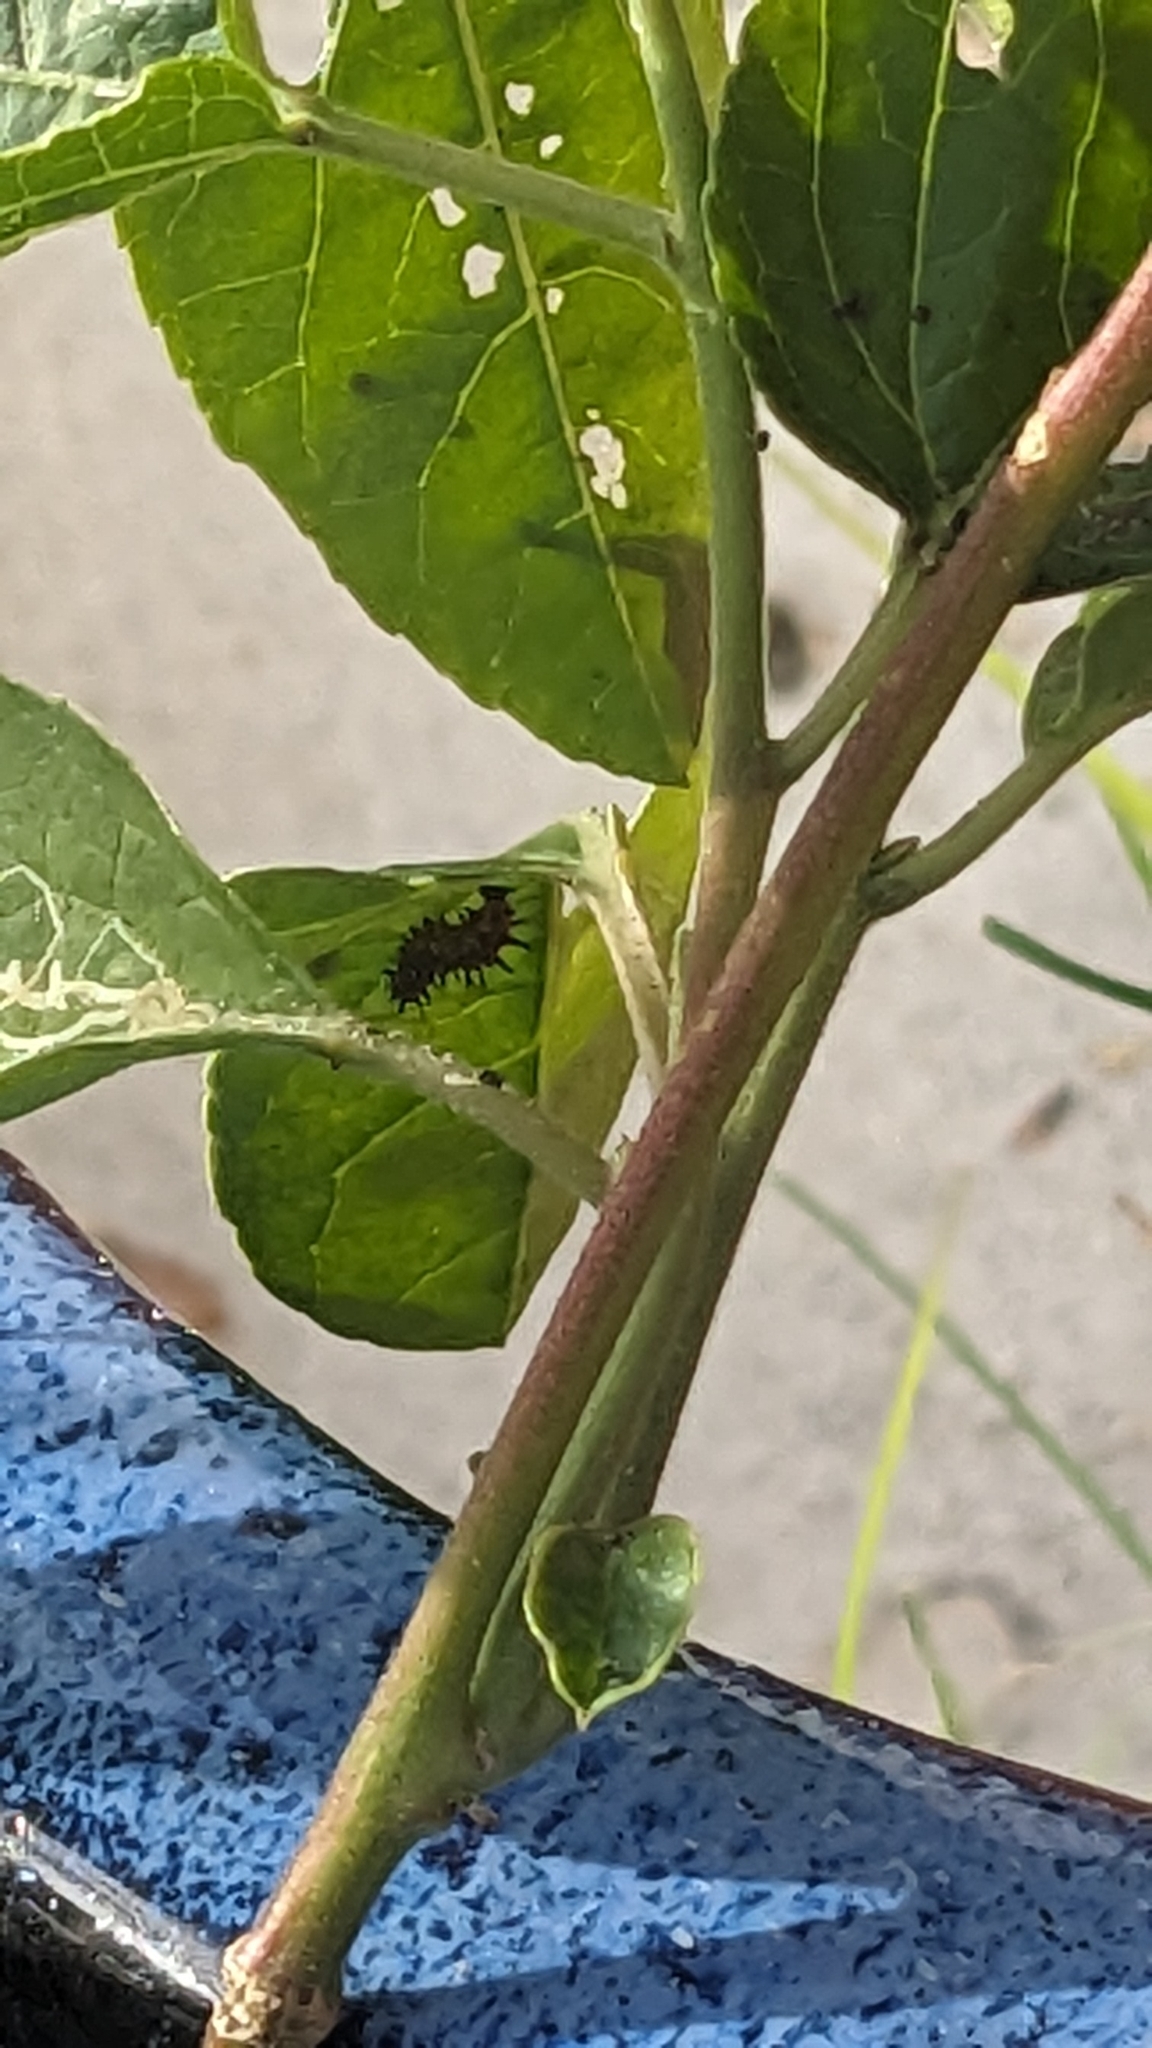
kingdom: Animalia
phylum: Arthropoda
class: Insecta
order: Lepidoptera
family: Nymphalidae
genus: Dione
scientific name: Dione vanillae
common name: Gulf fritillary
